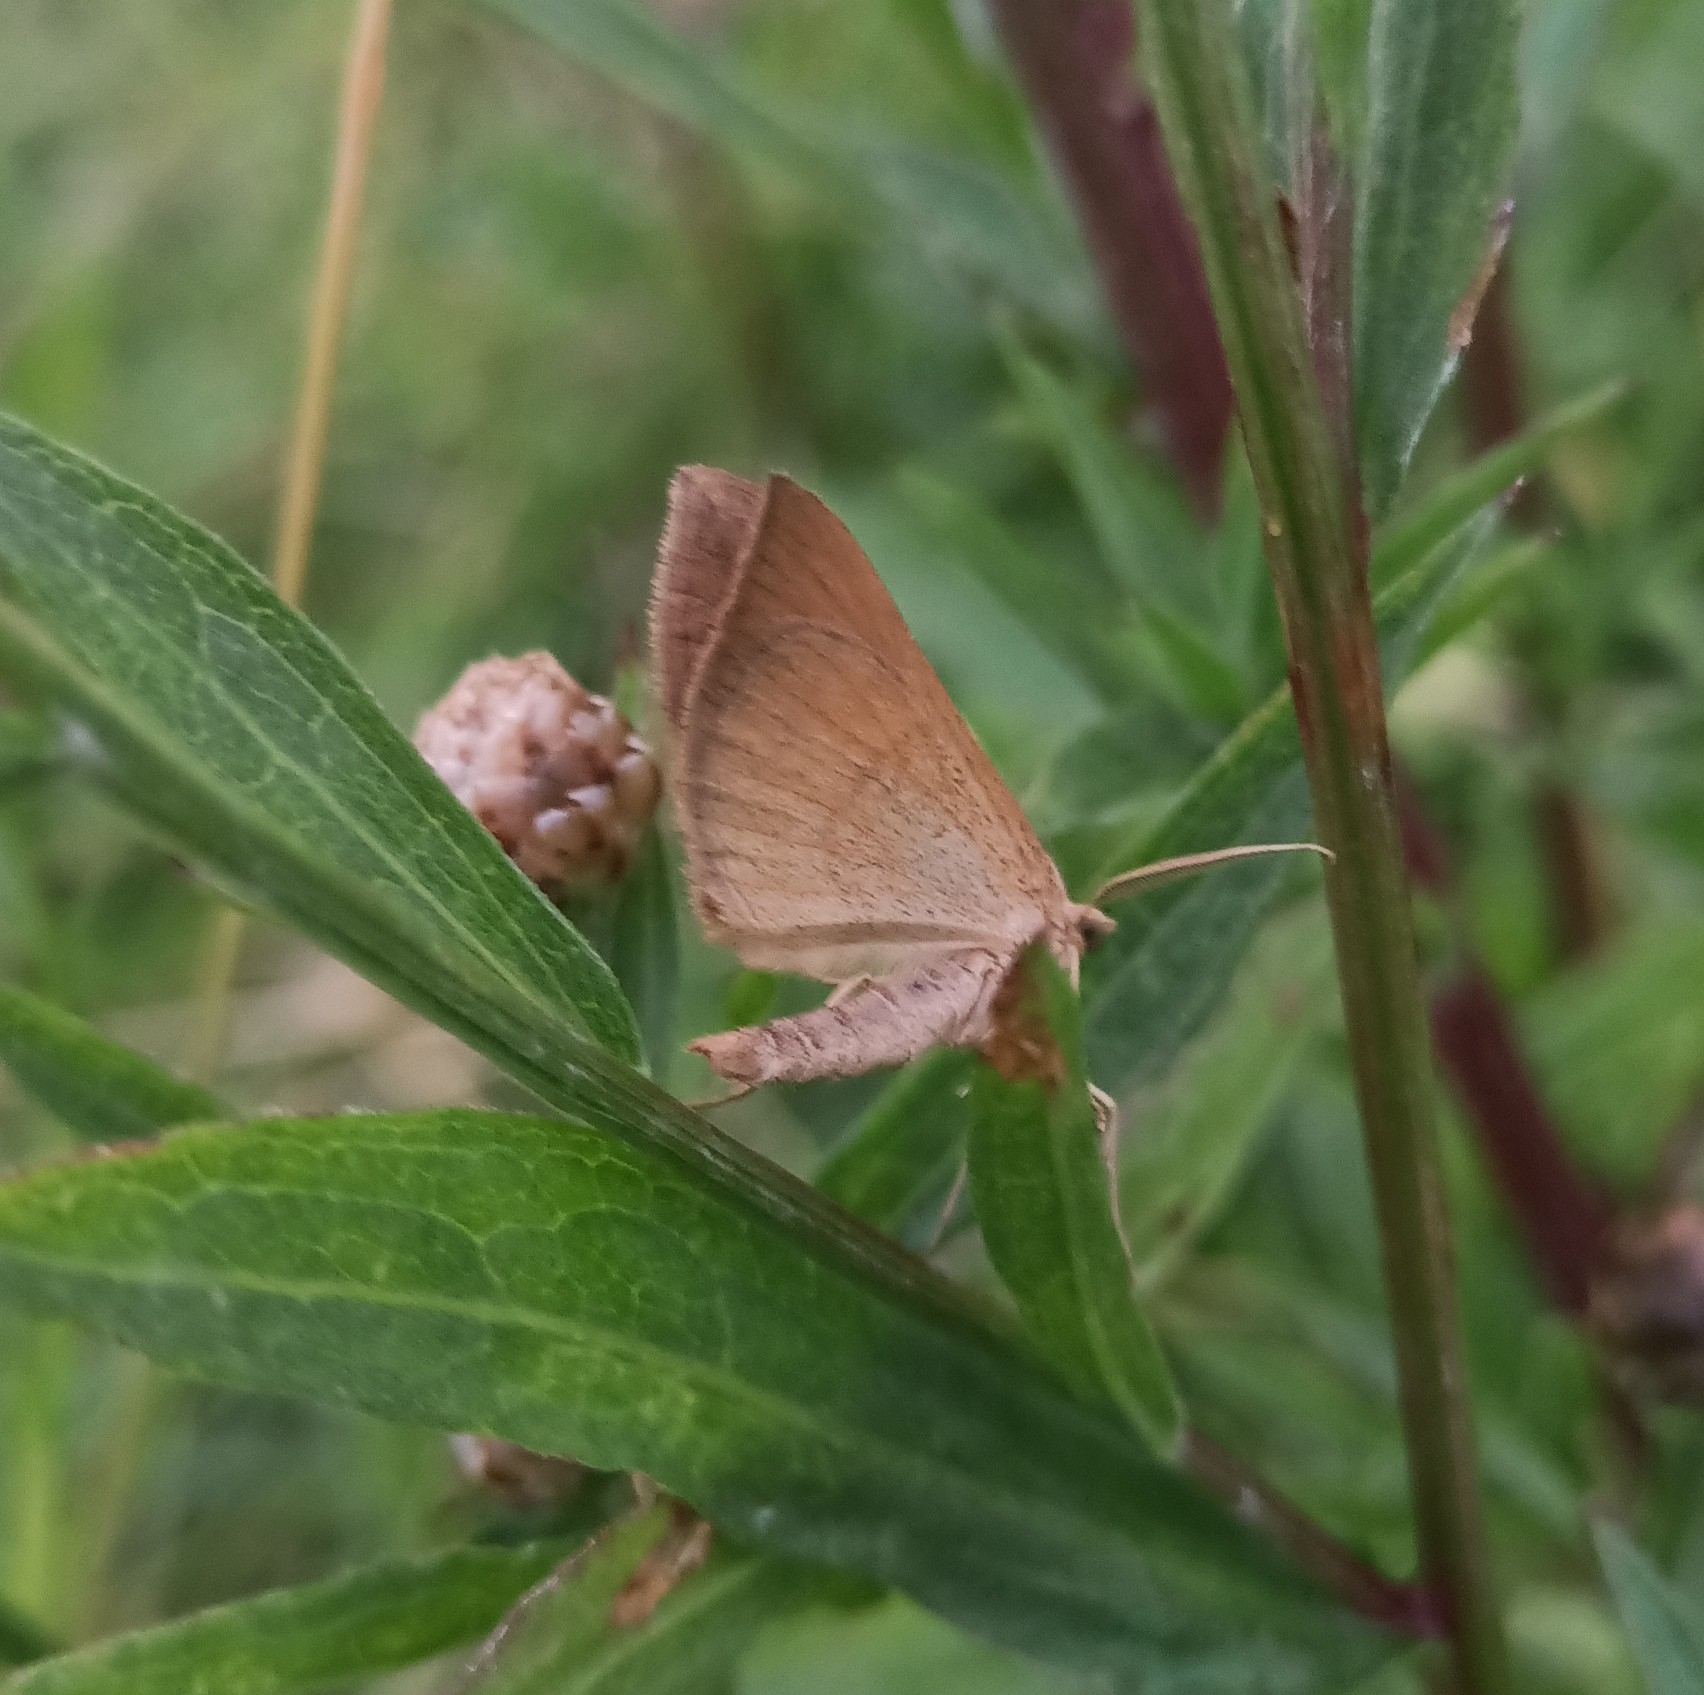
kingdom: Animalia
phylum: Arthropoda
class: Insecta
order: Lepidoptera
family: Geometridae
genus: Scotopteryx
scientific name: Scotopteryx chenopodiata
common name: Shaded broad-bar
